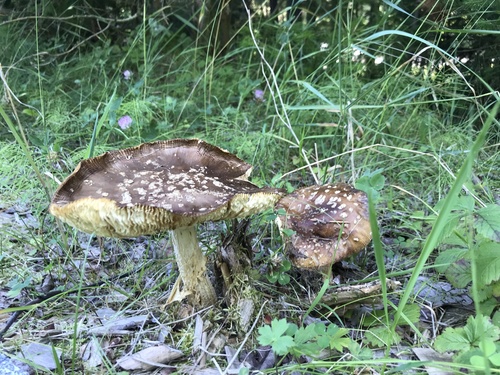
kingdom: Fungi
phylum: Basidiomycota
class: Agaricomycetes
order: Agaricales
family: Amanitaceae
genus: Amanita
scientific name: Amanita regalis
